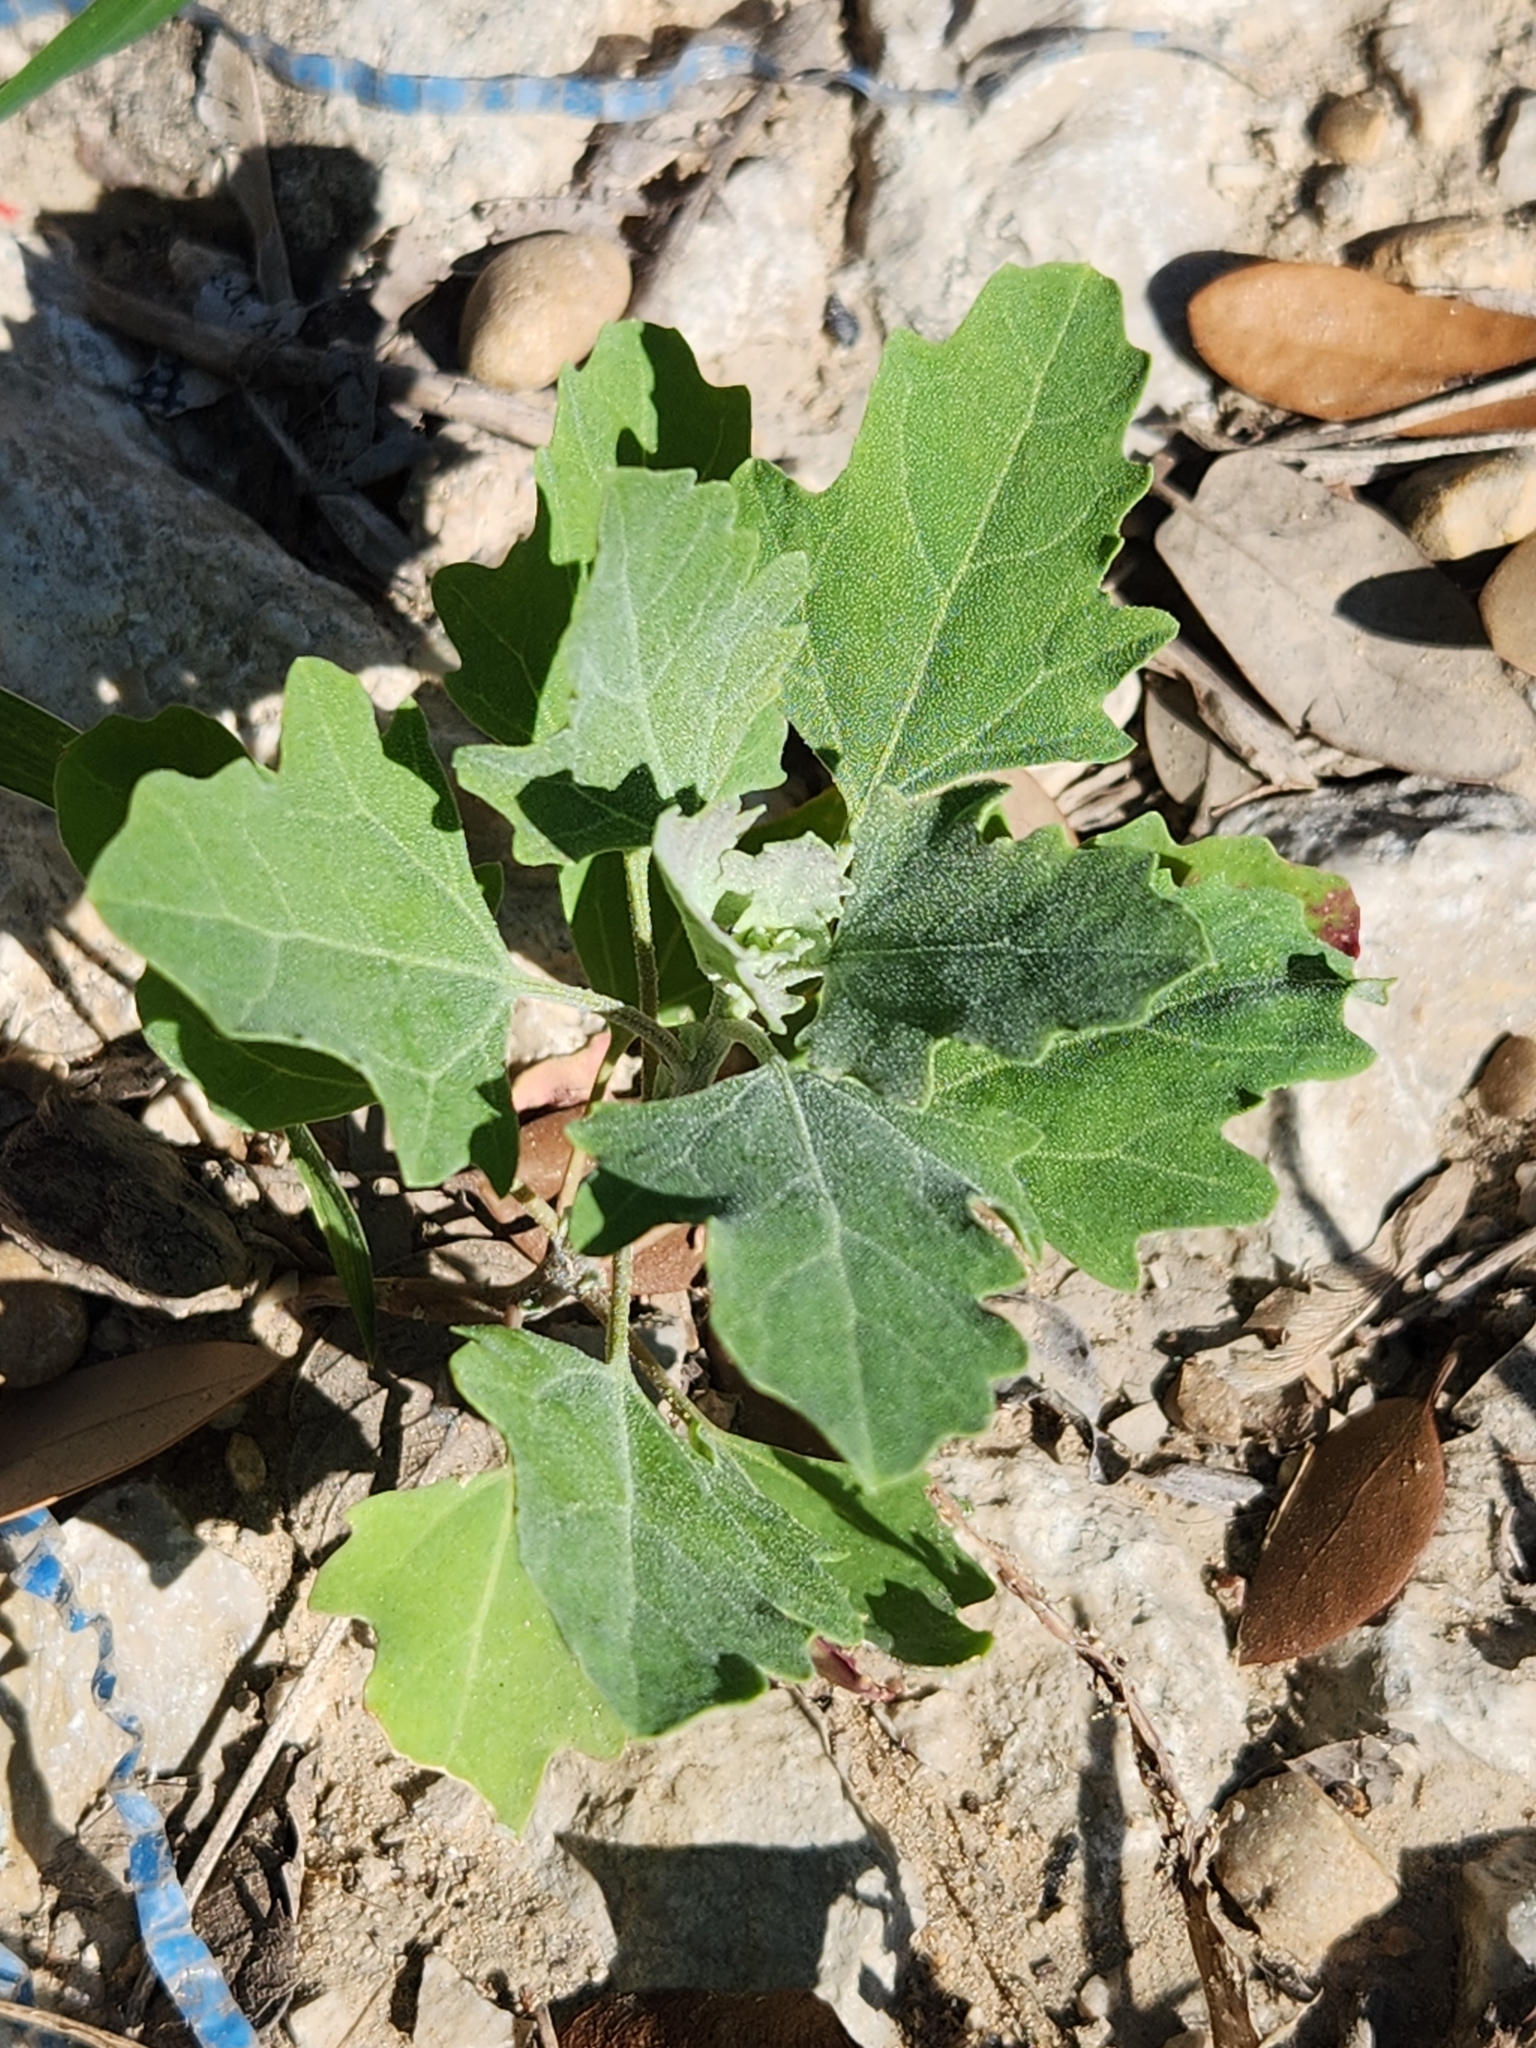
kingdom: Plantae
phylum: Tracheophyta
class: Magnoliopsida
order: Caryophyllales
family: Amaranthaceae
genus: Chenopodium
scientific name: Chenopodium album
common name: Fat-hen
